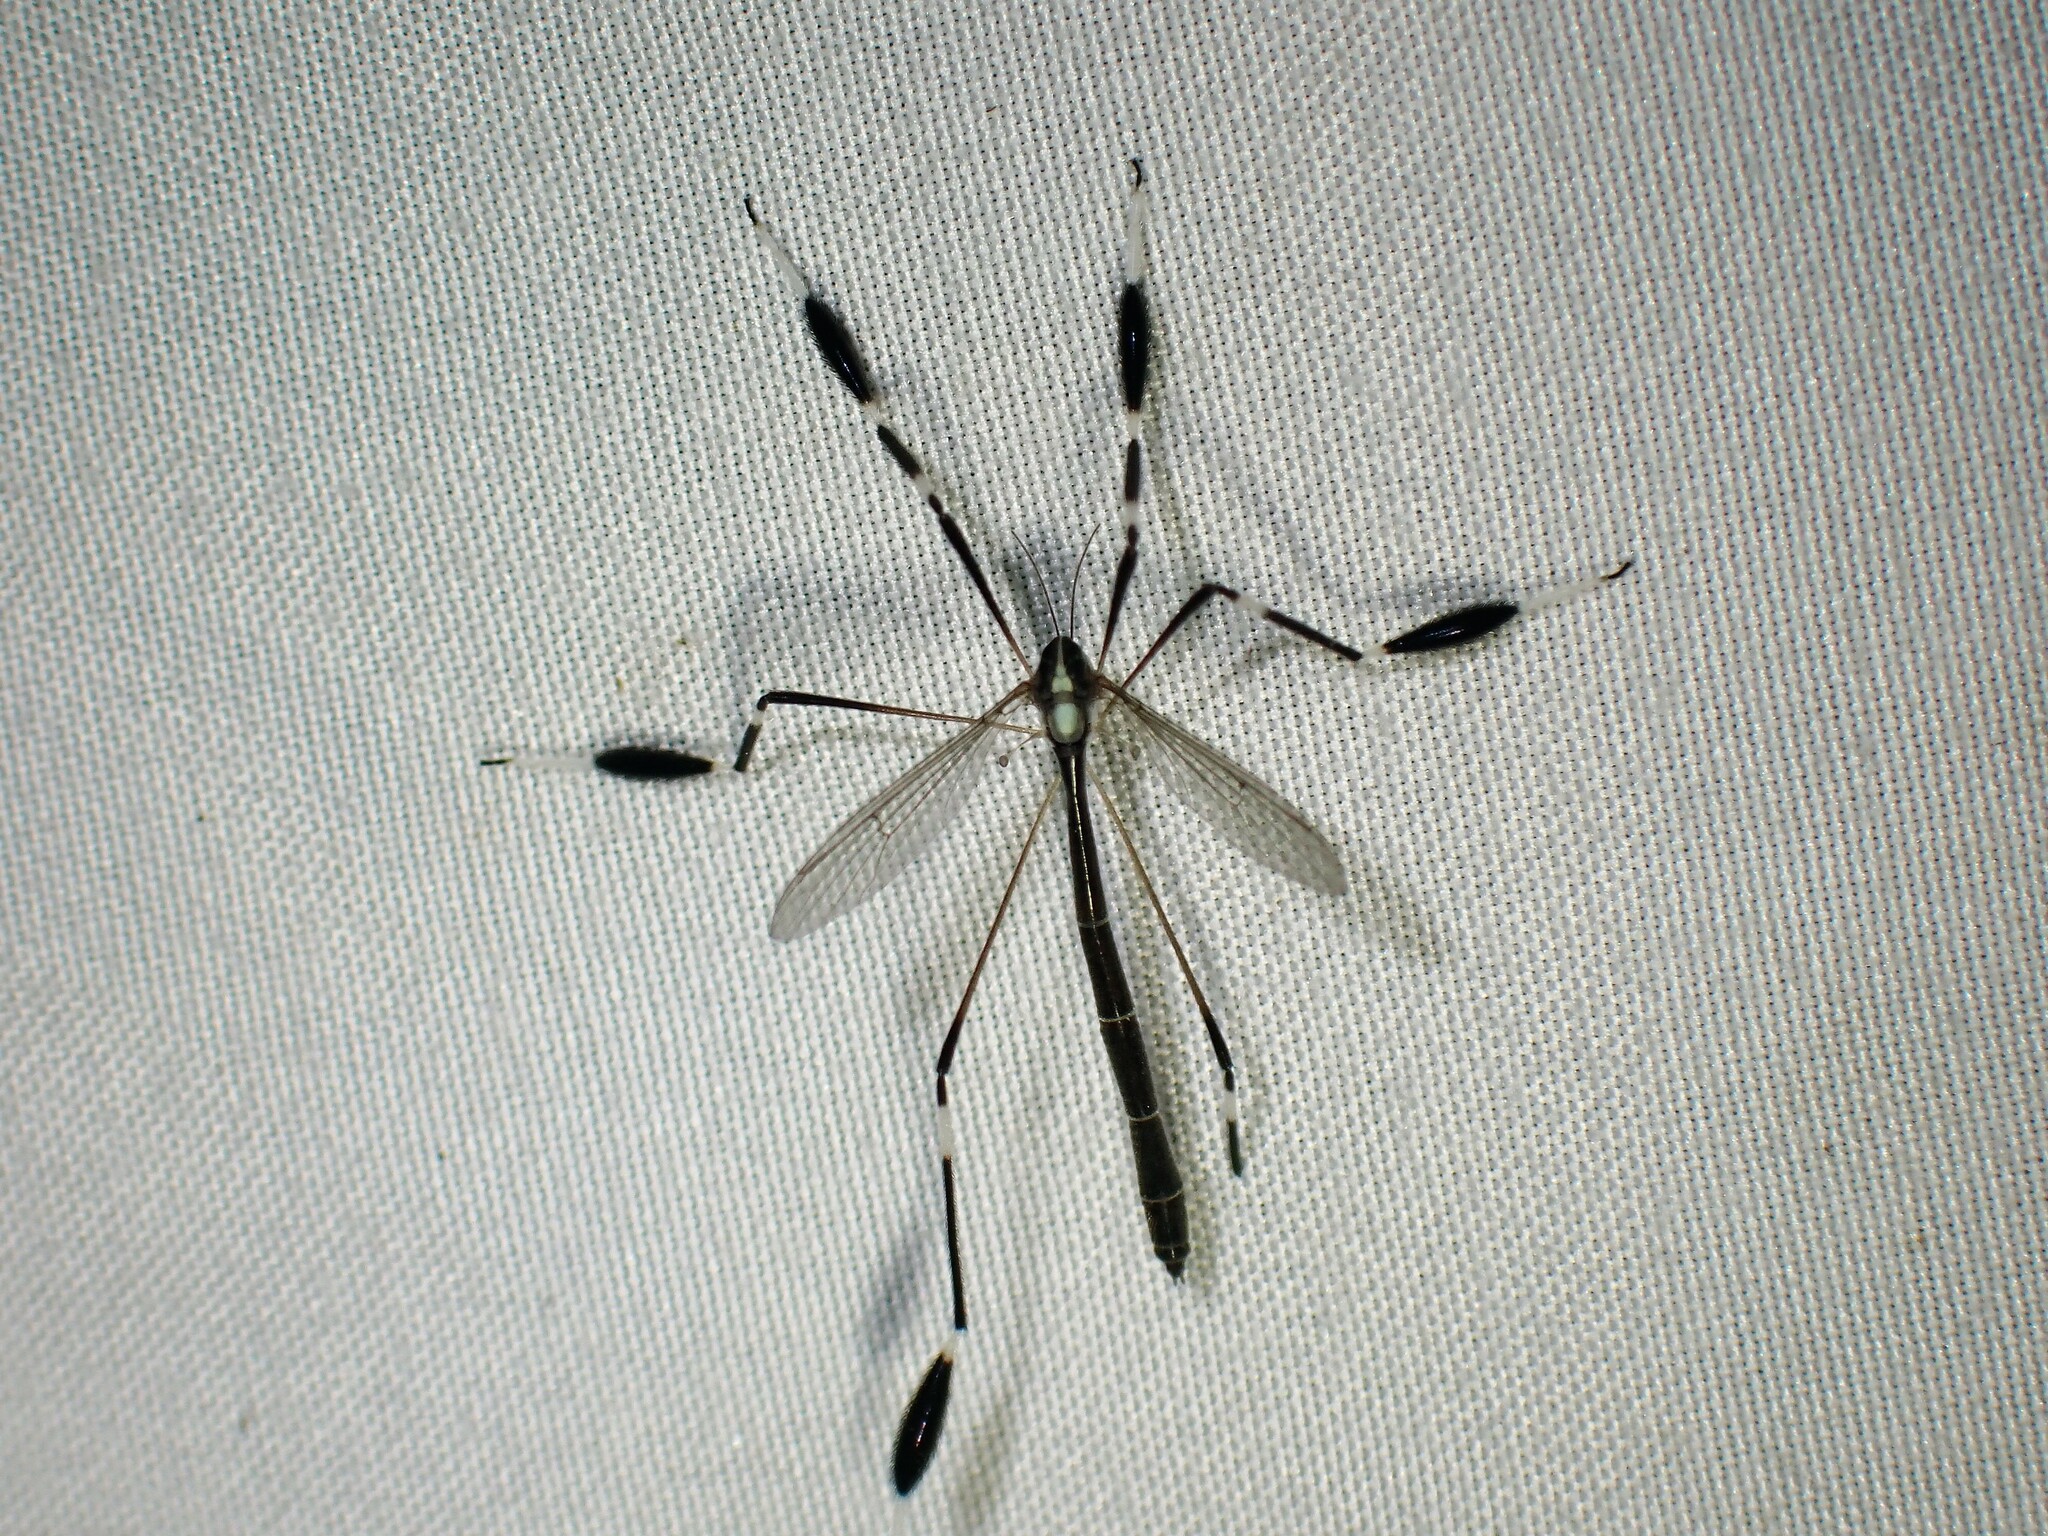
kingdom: Animalia
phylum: Arthropoda
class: Insecta
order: Diptera
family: Ptychopteridae
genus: Bittacomorpha
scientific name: Bittacomorpha clavipes
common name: Eastern phantom crane fly
